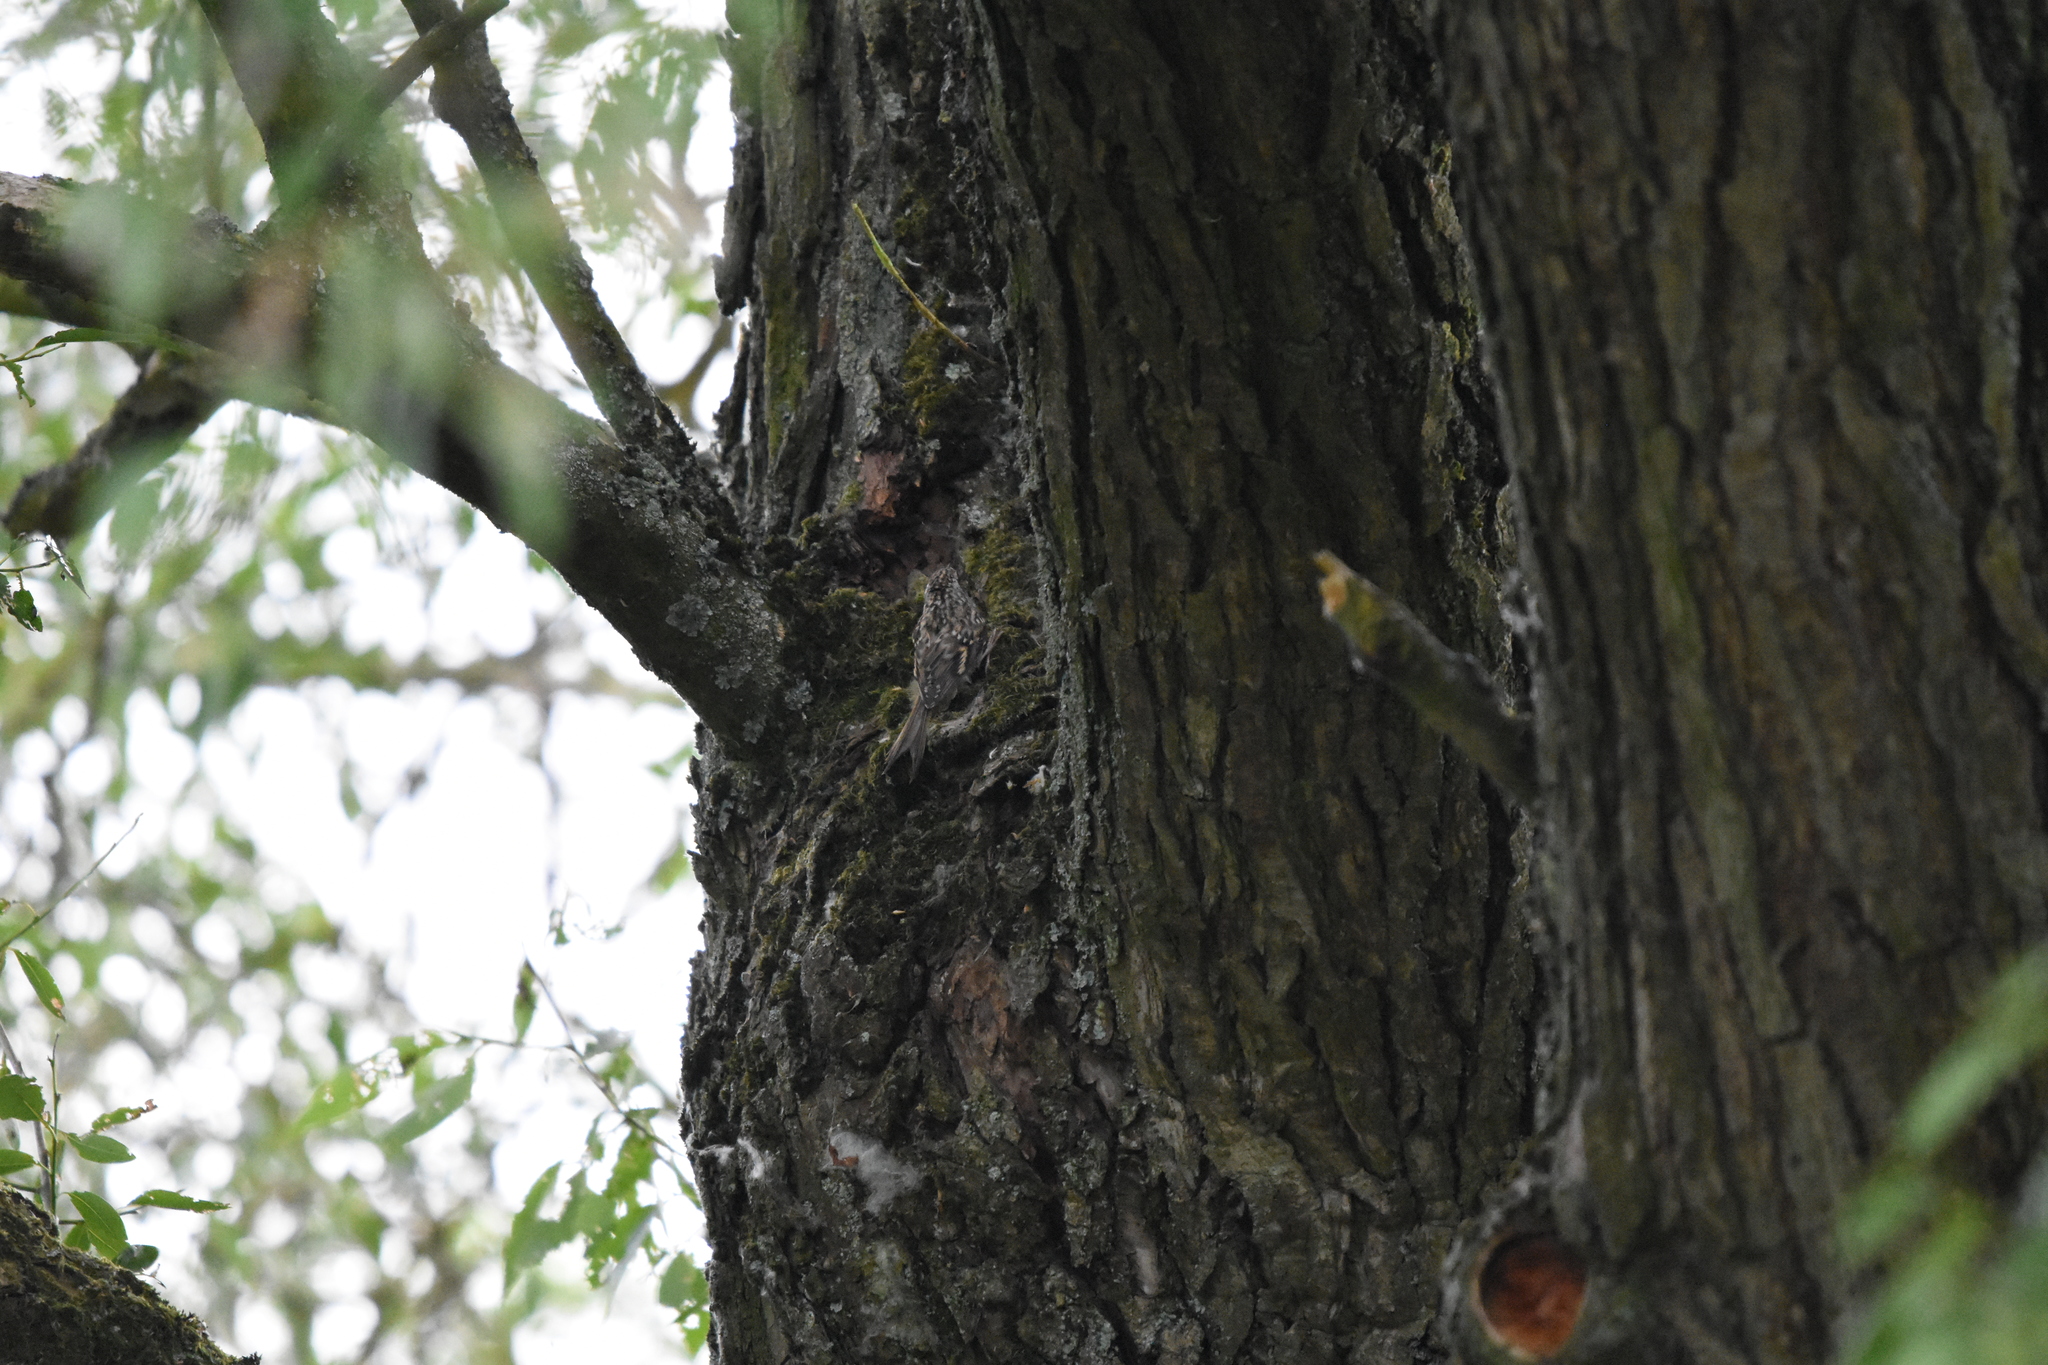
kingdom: Animalia
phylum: Chordata
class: Aves
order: Passeriformes
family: Certhiidae
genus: Certhia
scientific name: Certhia brachydactyla
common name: Short-toed treecreeper
